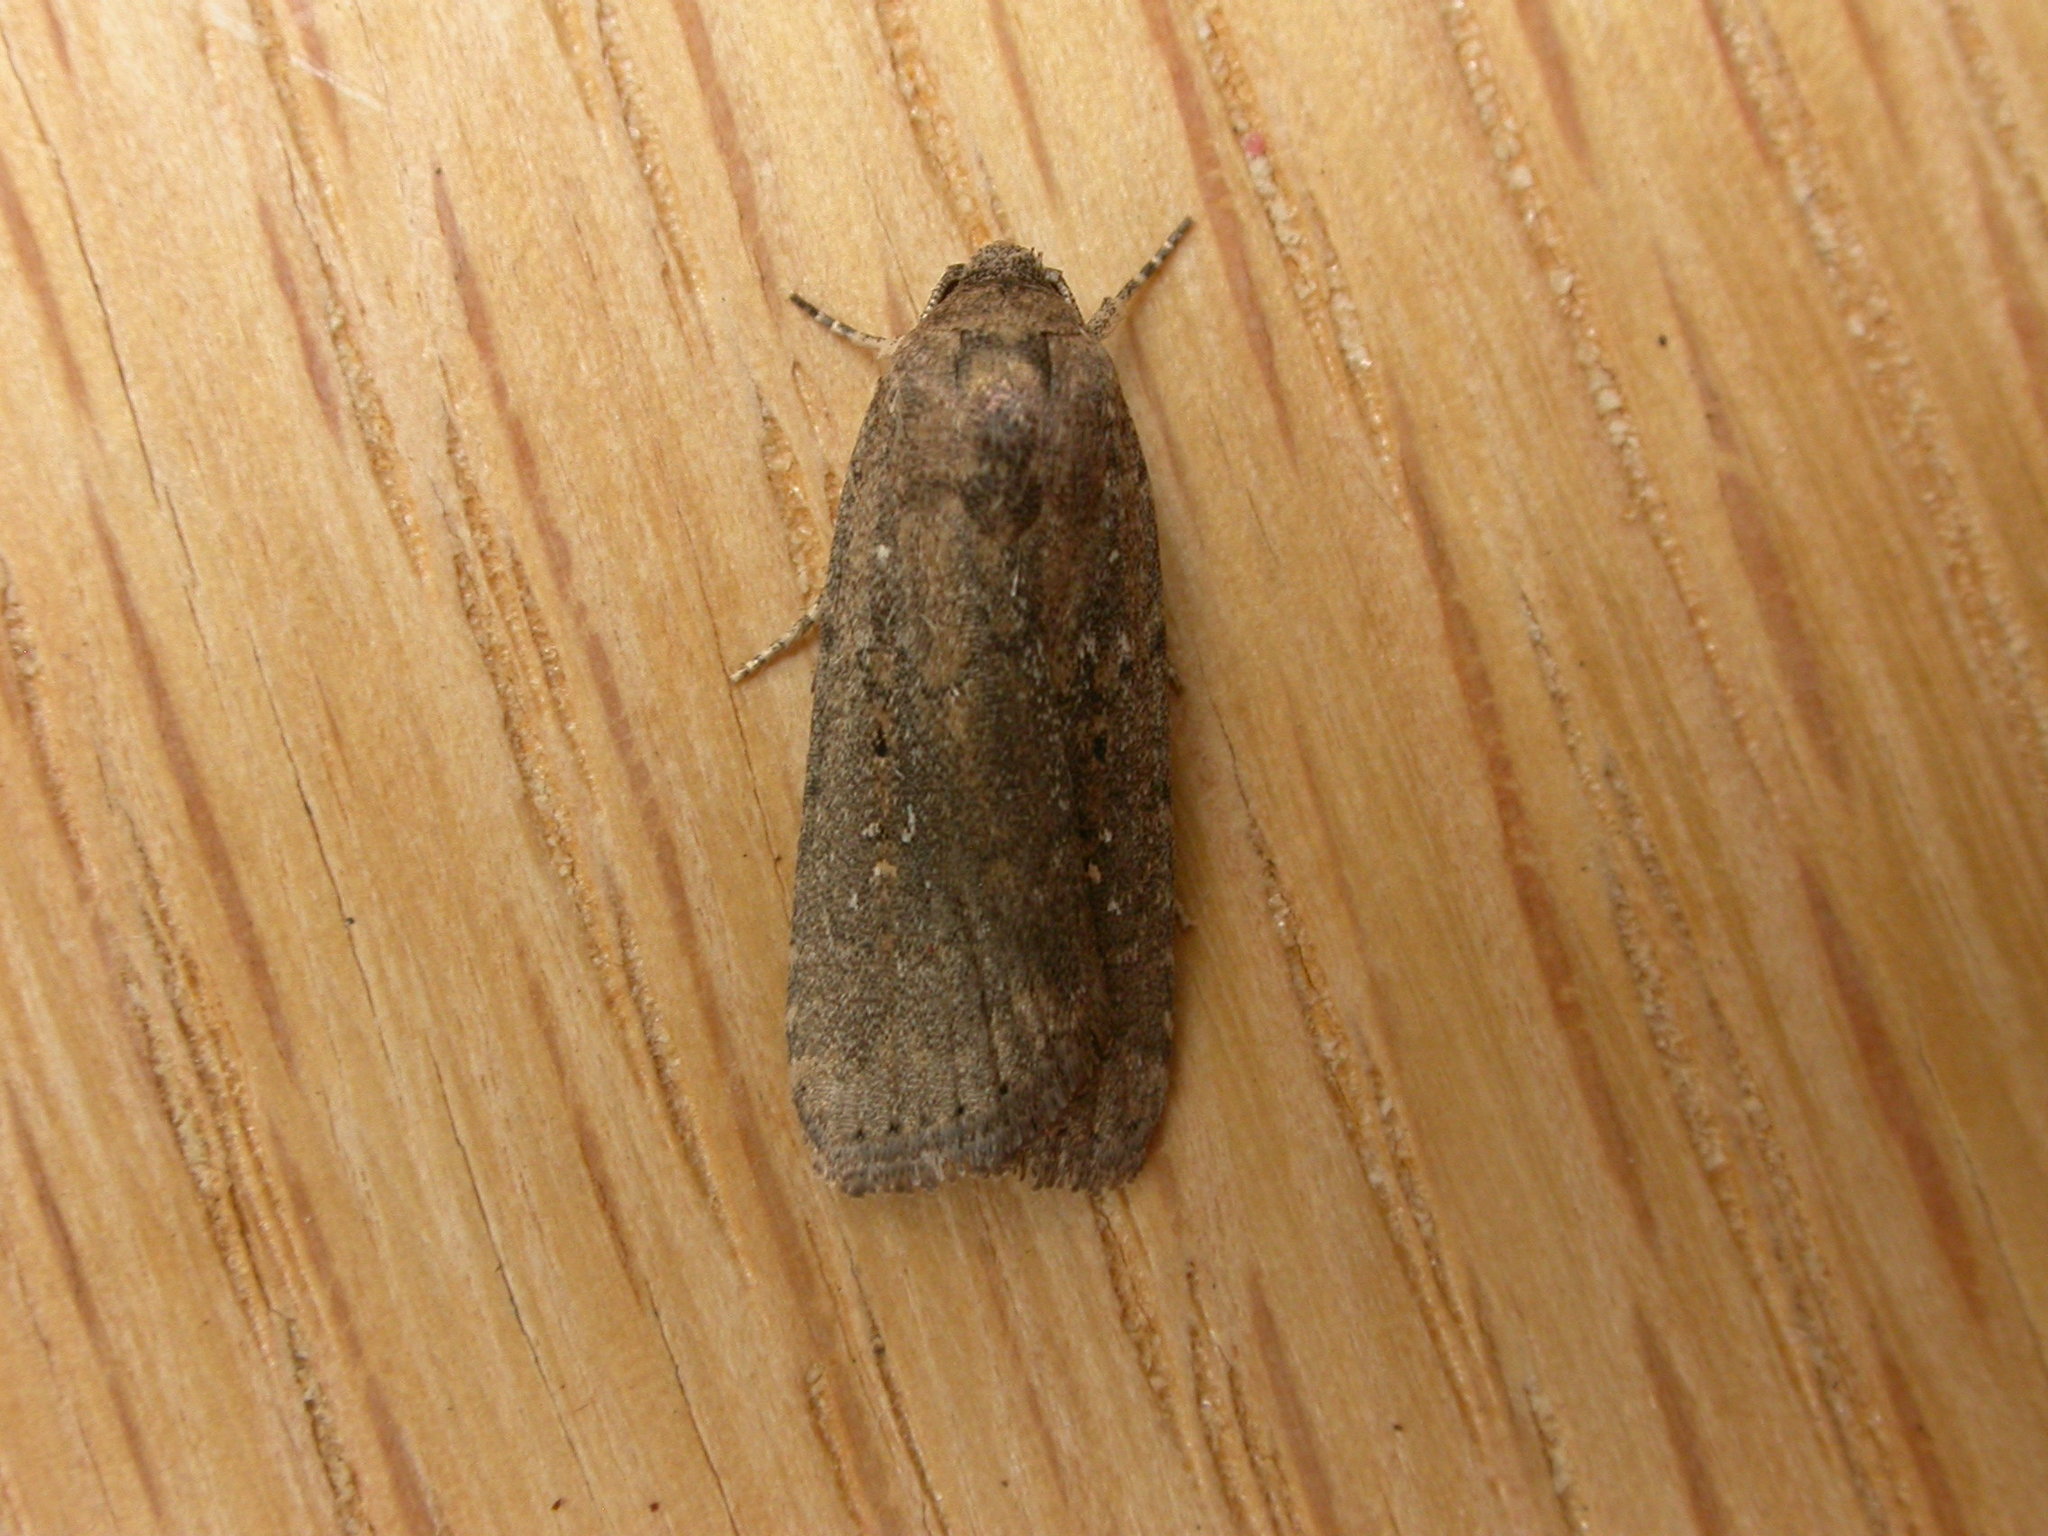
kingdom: Animalia
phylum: Arthropoda
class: Insecta
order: Lepidoptera
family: Noctuidae
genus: Athetis
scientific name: Athetis tenuis
